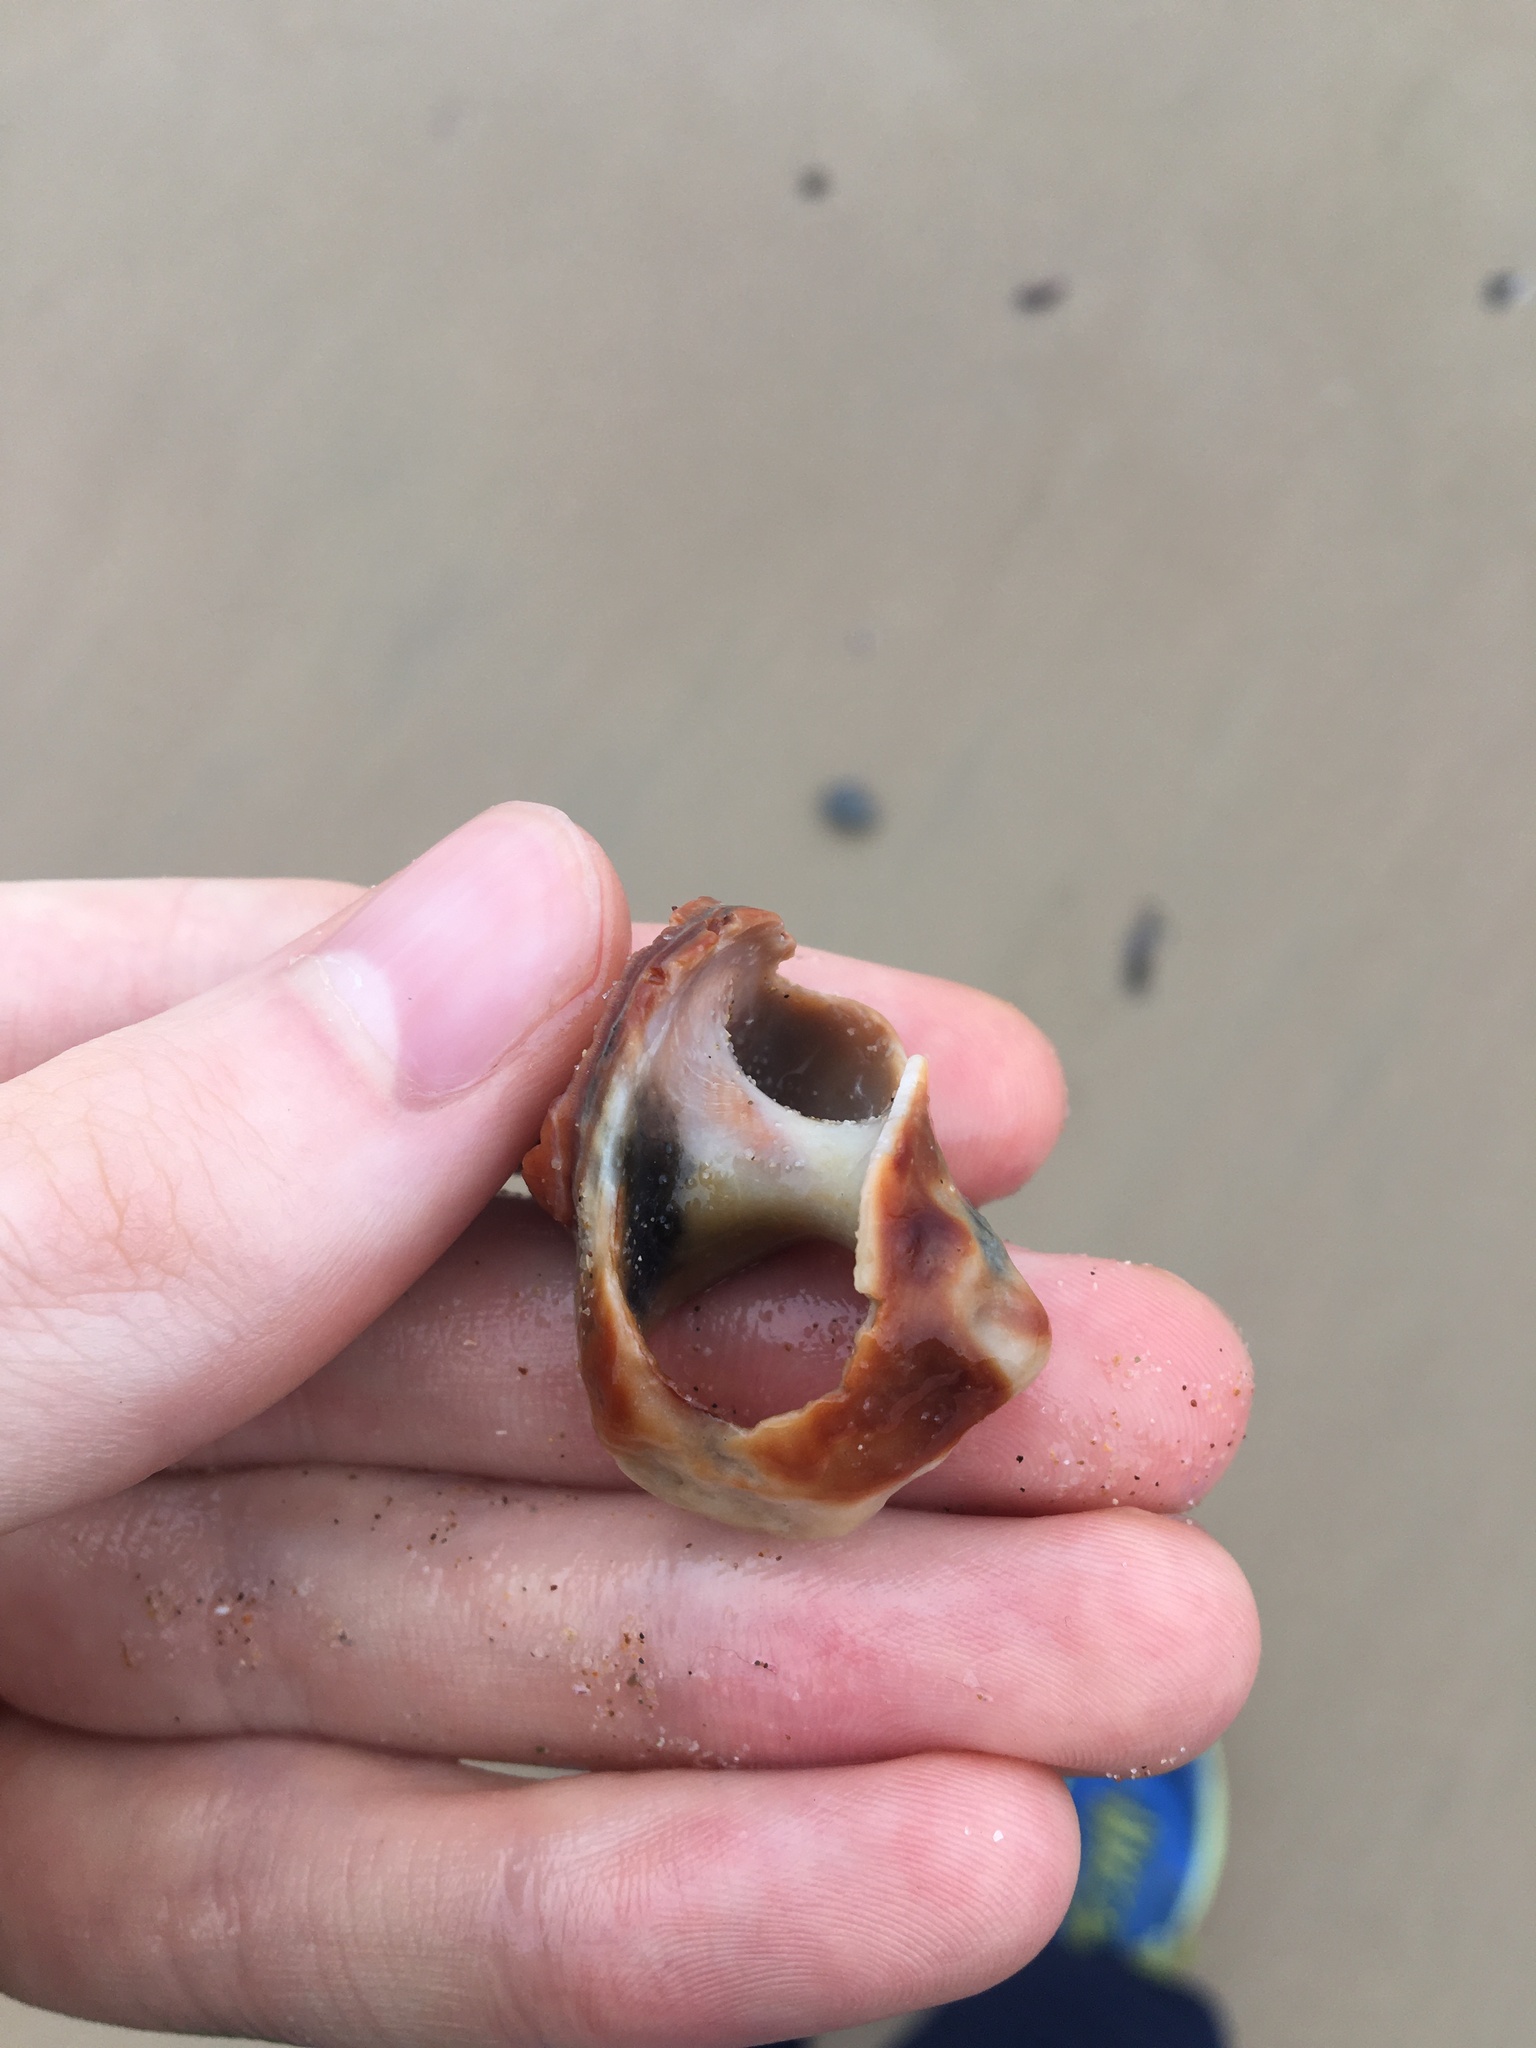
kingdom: Animalia
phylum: Mollusca
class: Gastropoda
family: Batillariidae
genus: Pyrazus
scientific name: Pyrazus ebeninus
